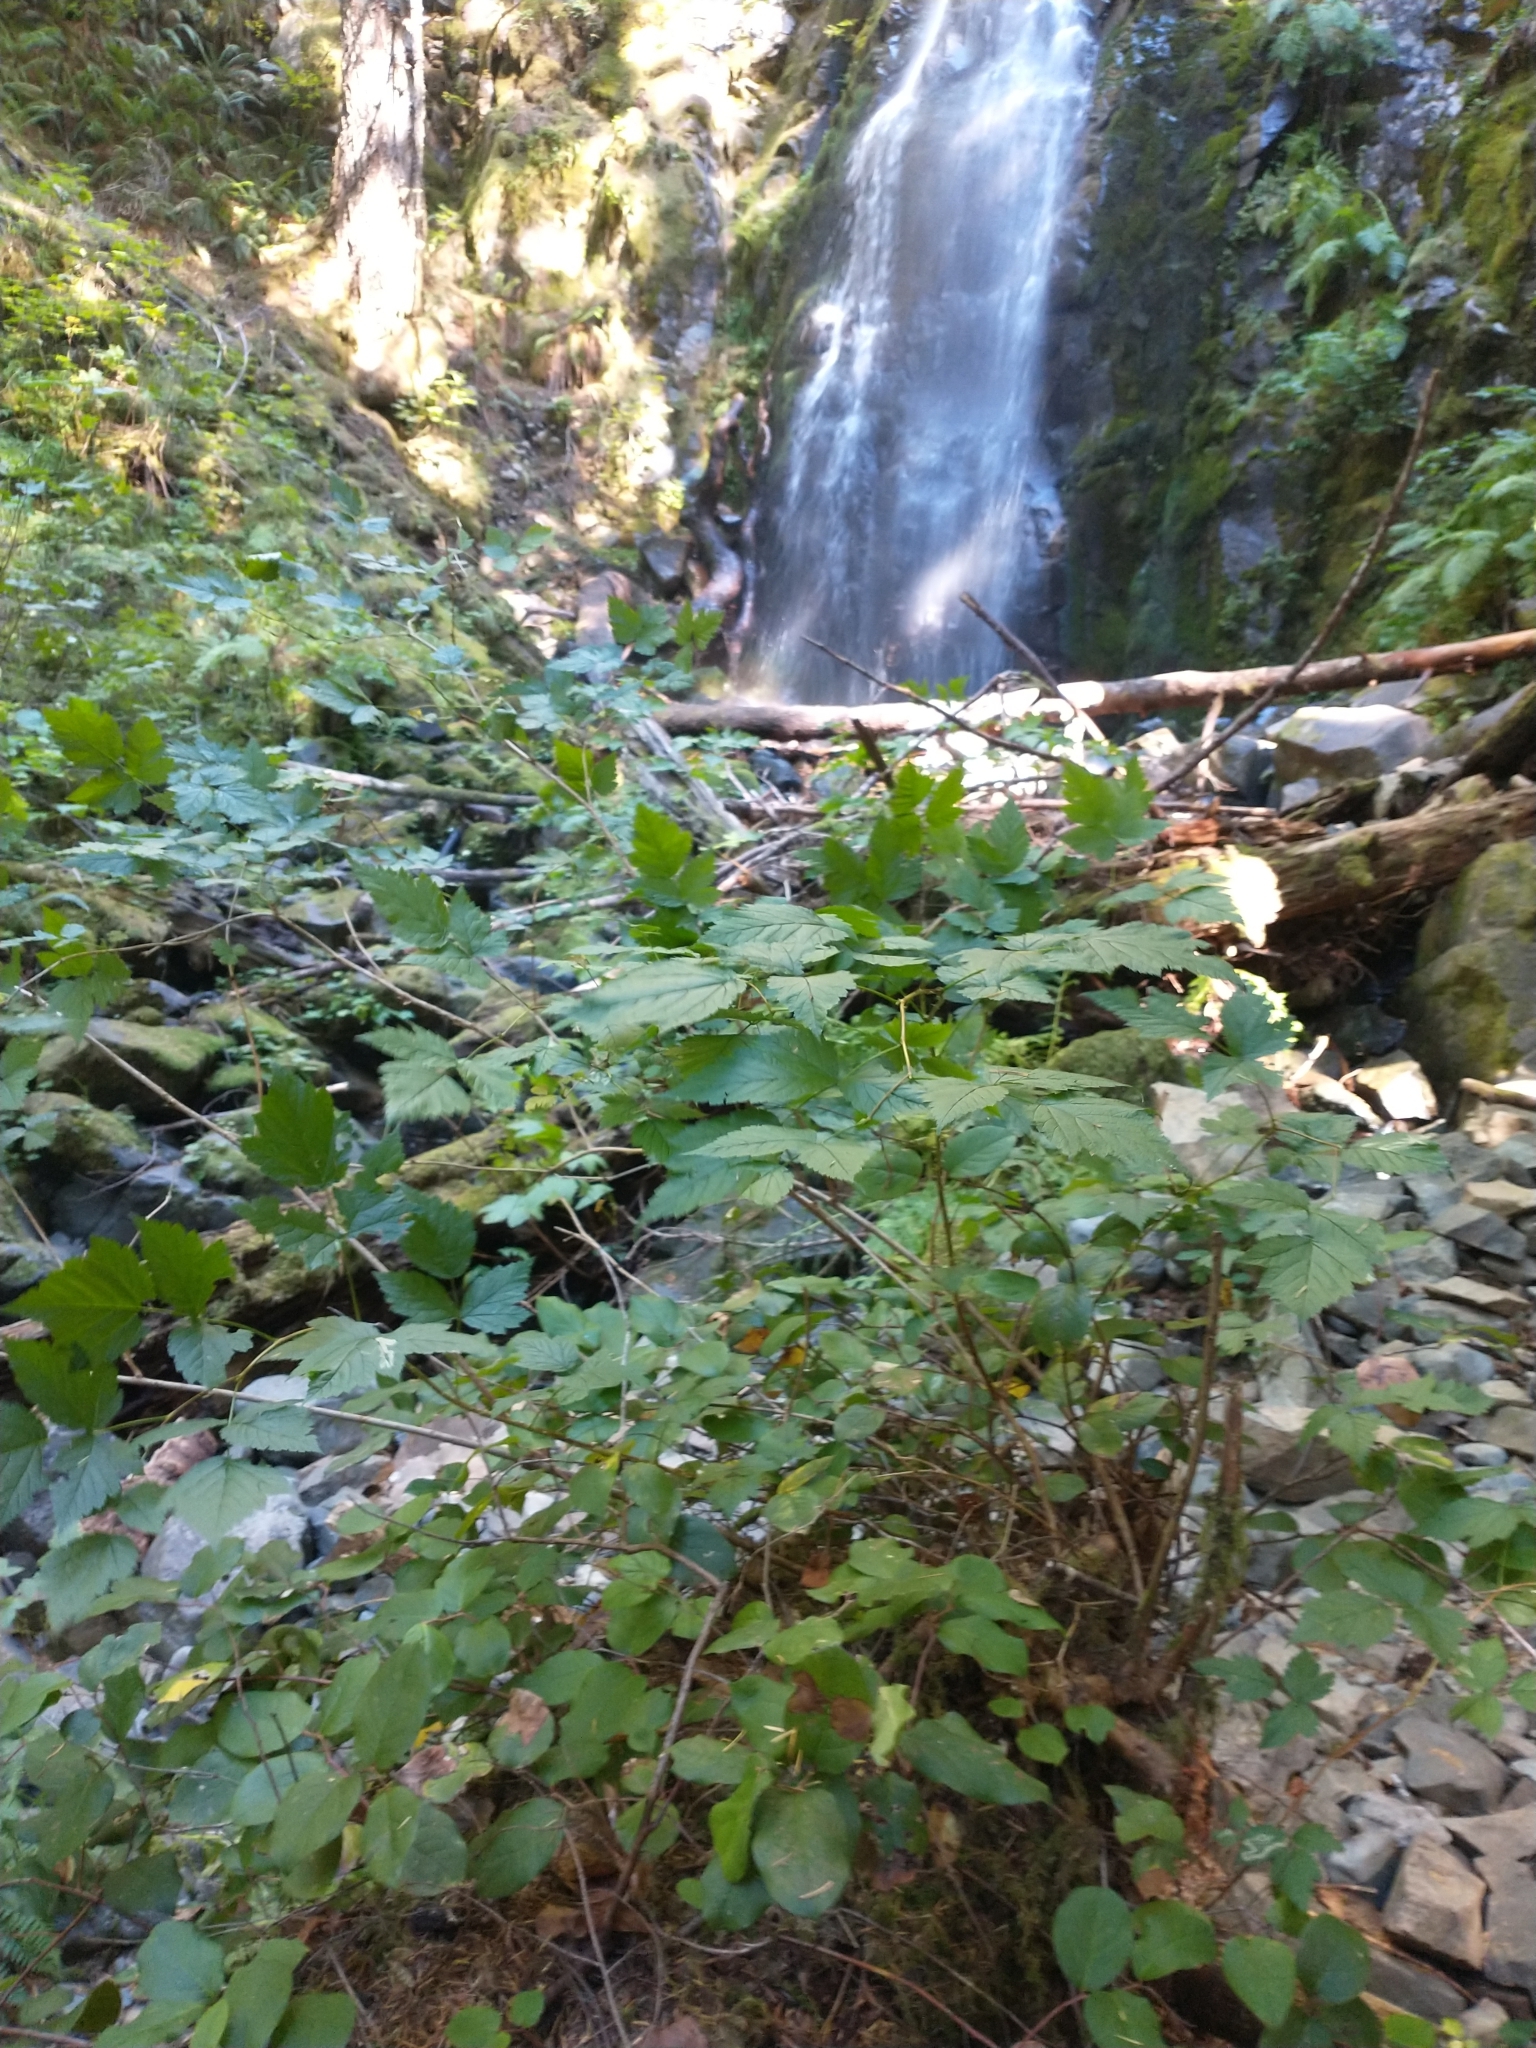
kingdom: Plantae
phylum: Tracheophyta
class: Magnoliopsida
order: Rosales
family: Rosaceae
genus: Rubus
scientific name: Rubus spectabilis
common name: Salmonberry
